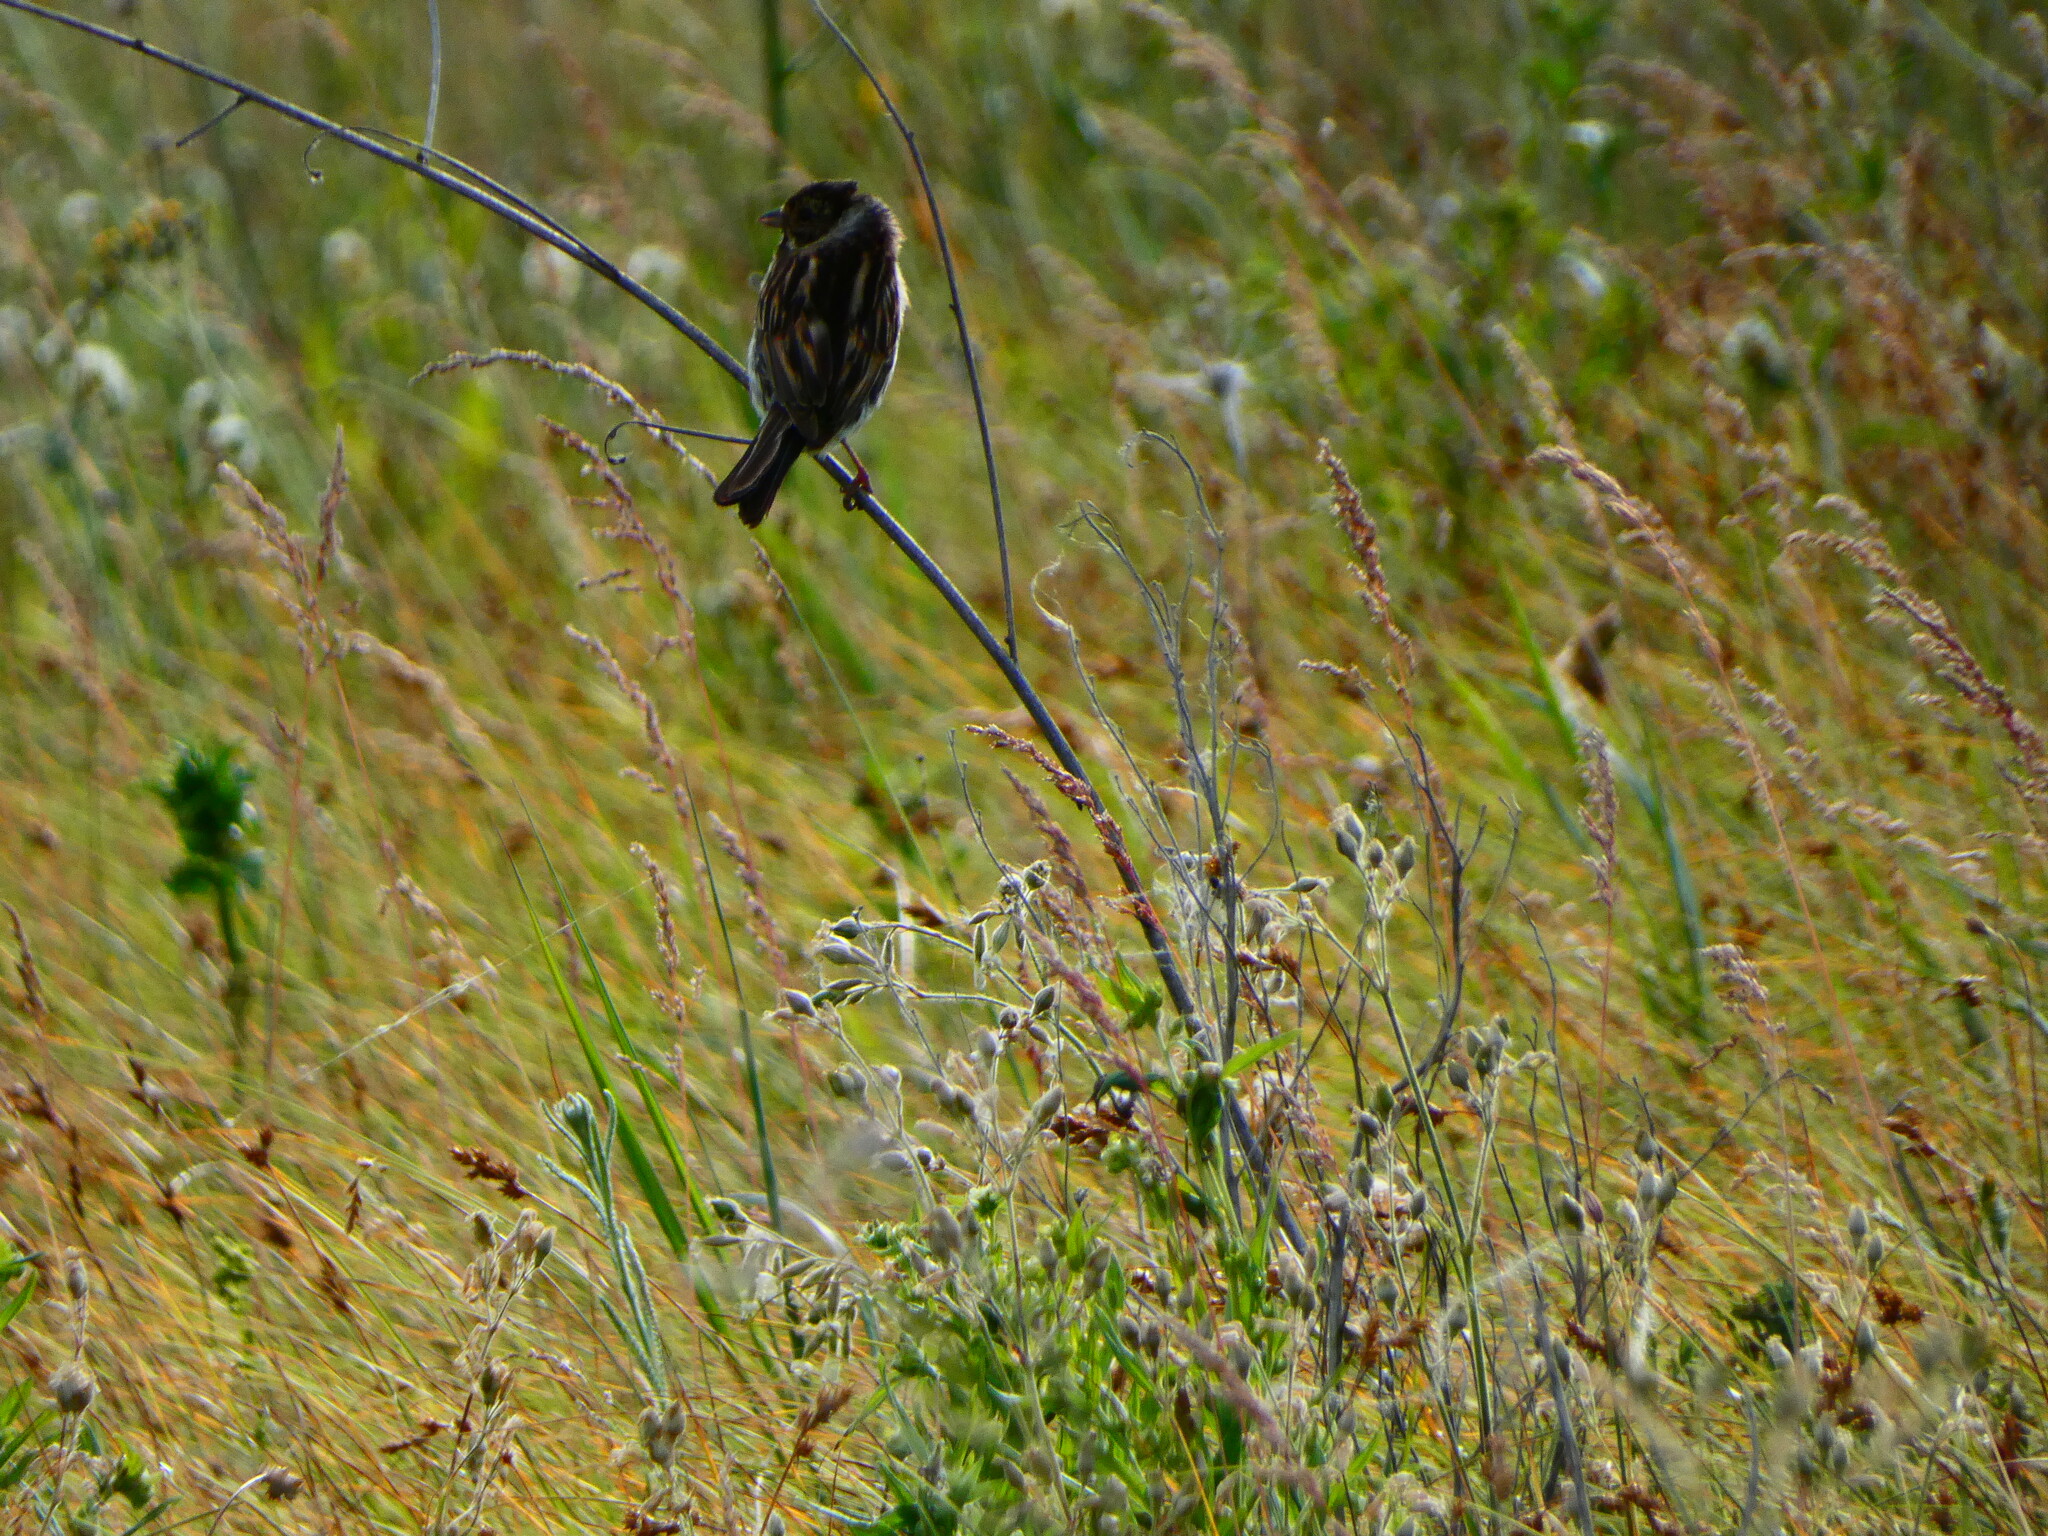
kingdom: Animalia
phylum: Chordata
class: Aves
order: Passeriformes
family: Emberizidae
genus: Emberiza
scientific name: Emberiza schoeniclus
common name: Reed bunting
